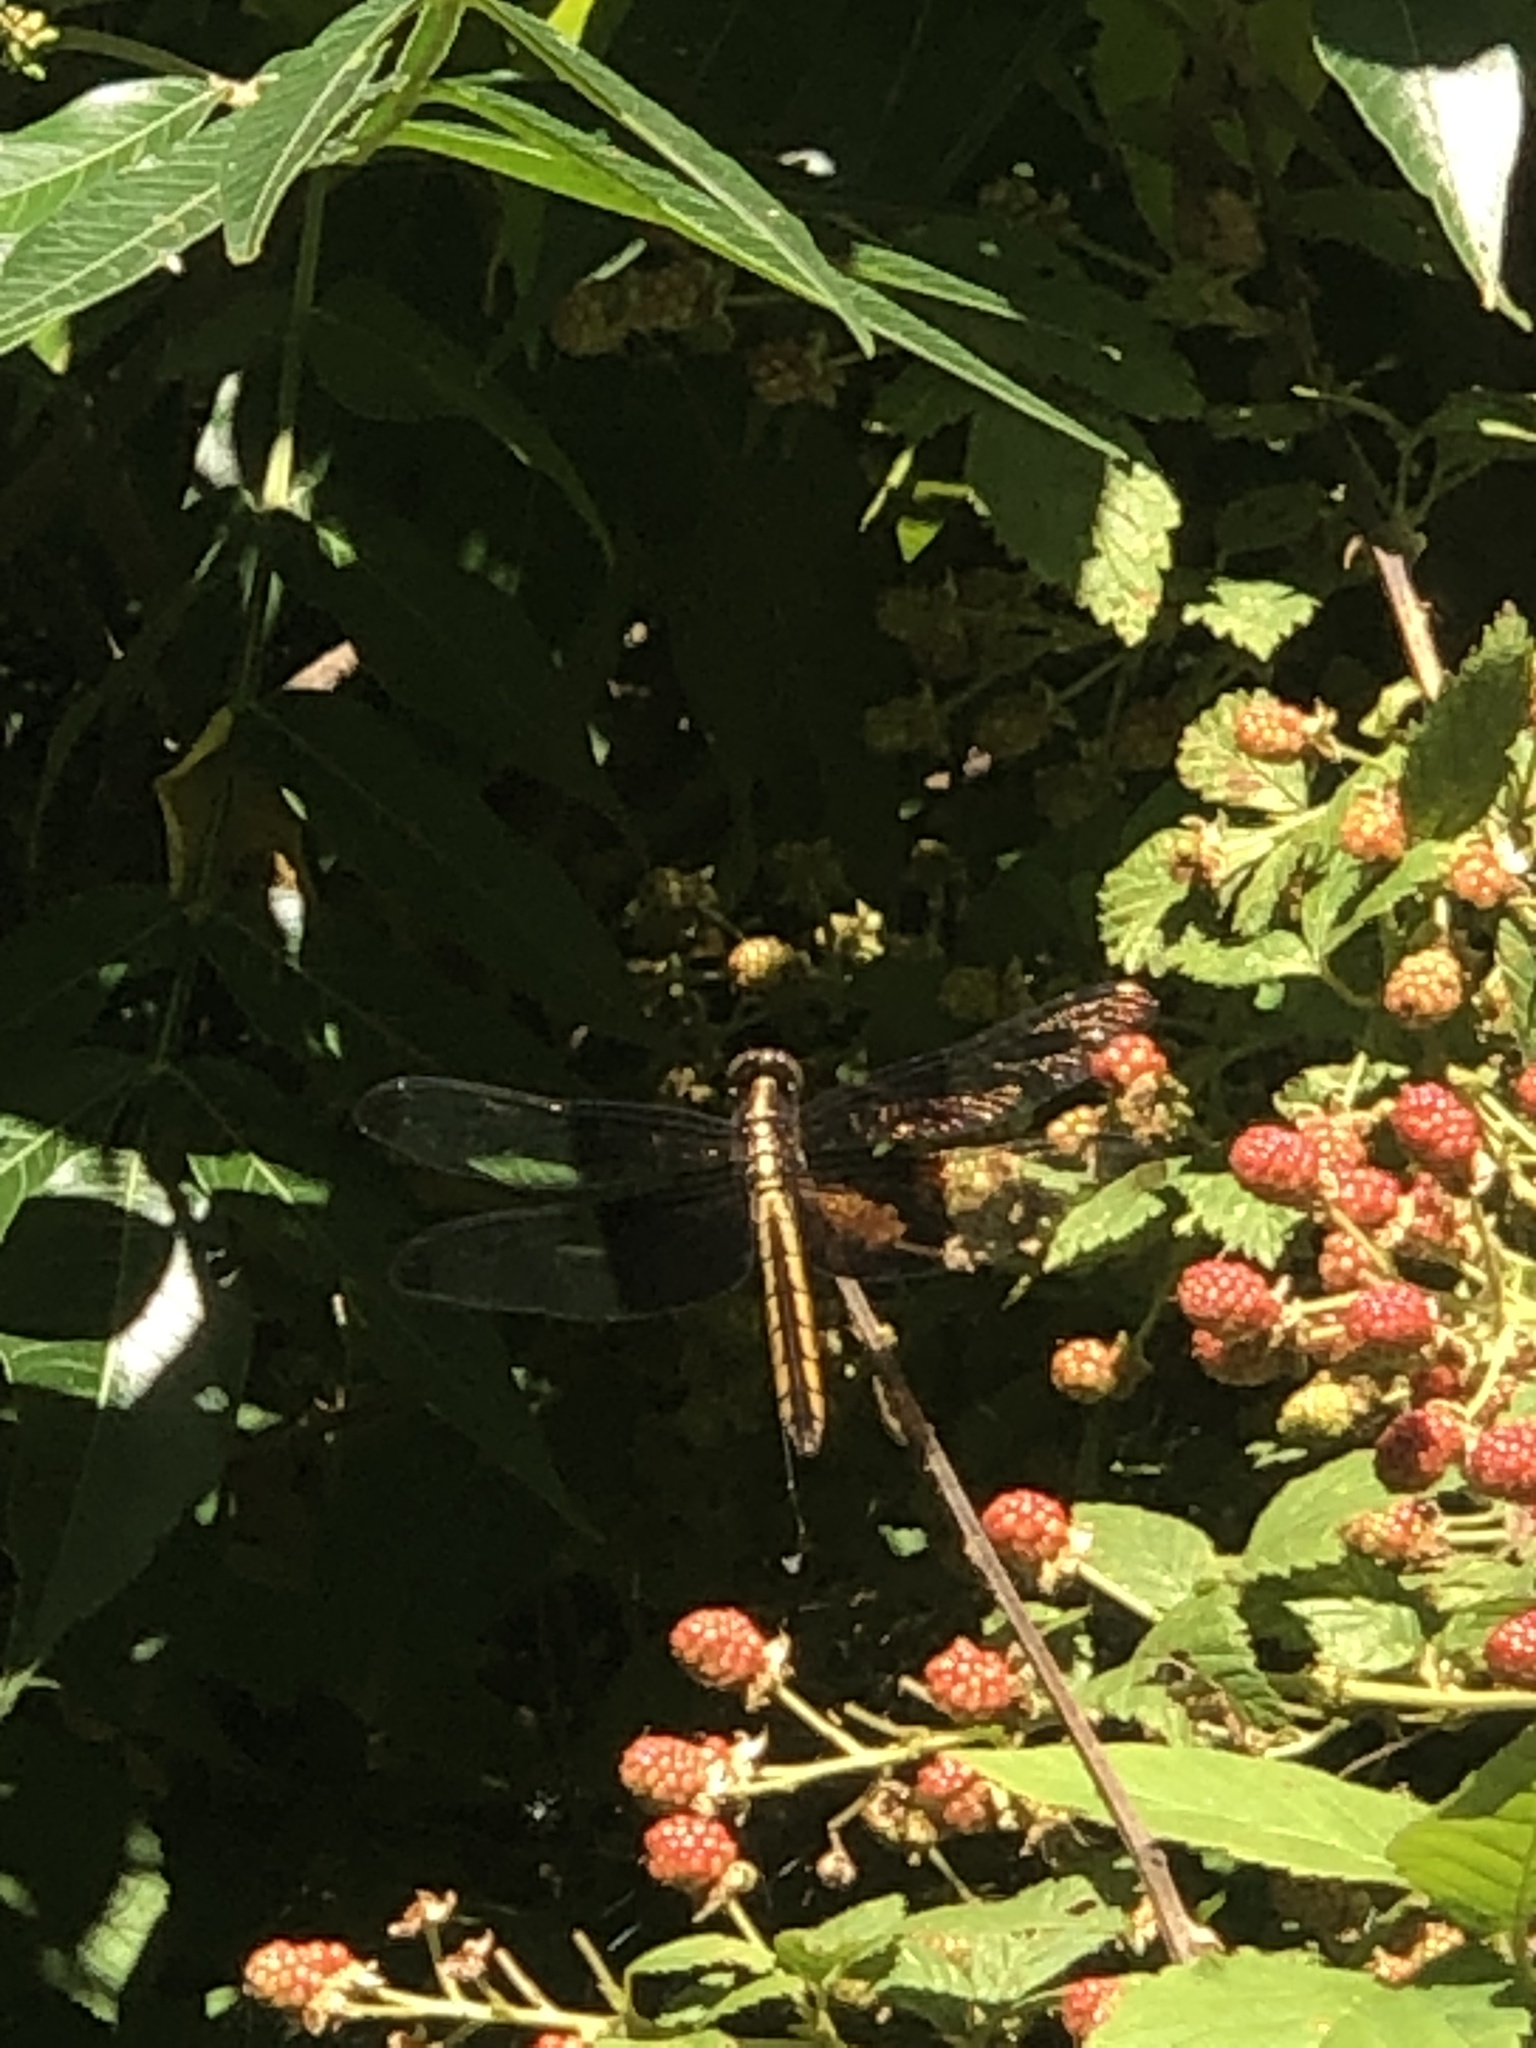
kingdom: Animalia
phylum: Arthropoda
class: Insecta
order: Odonata
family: Libellulidae
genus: Libellula
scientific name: Libellula luctuosa
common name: Widow skimmer
